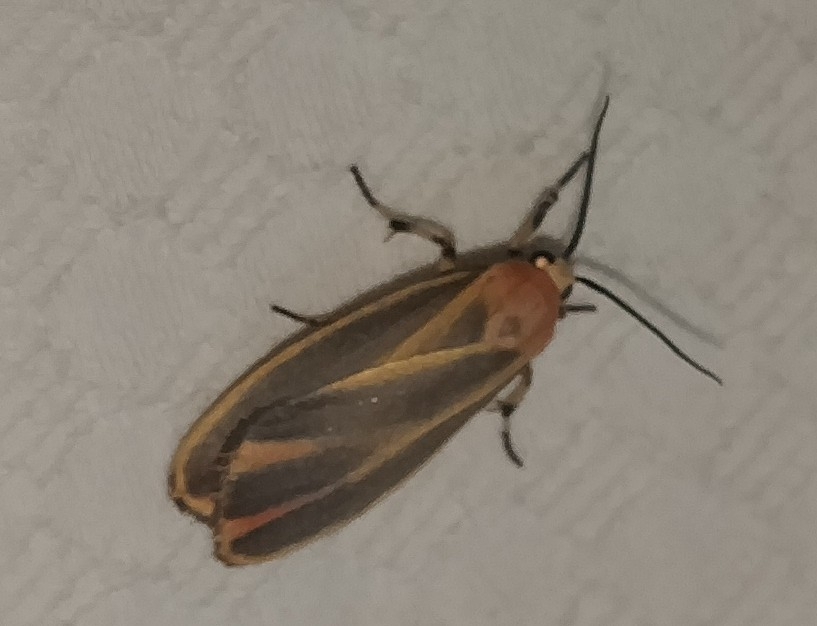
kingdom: Animalia
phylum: Arthropoda
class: Insecta
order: Lepidoptera
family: Erebidae
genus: Hypoprepia
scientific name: Hypoprepia fucosa
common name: Painted lichen moth
